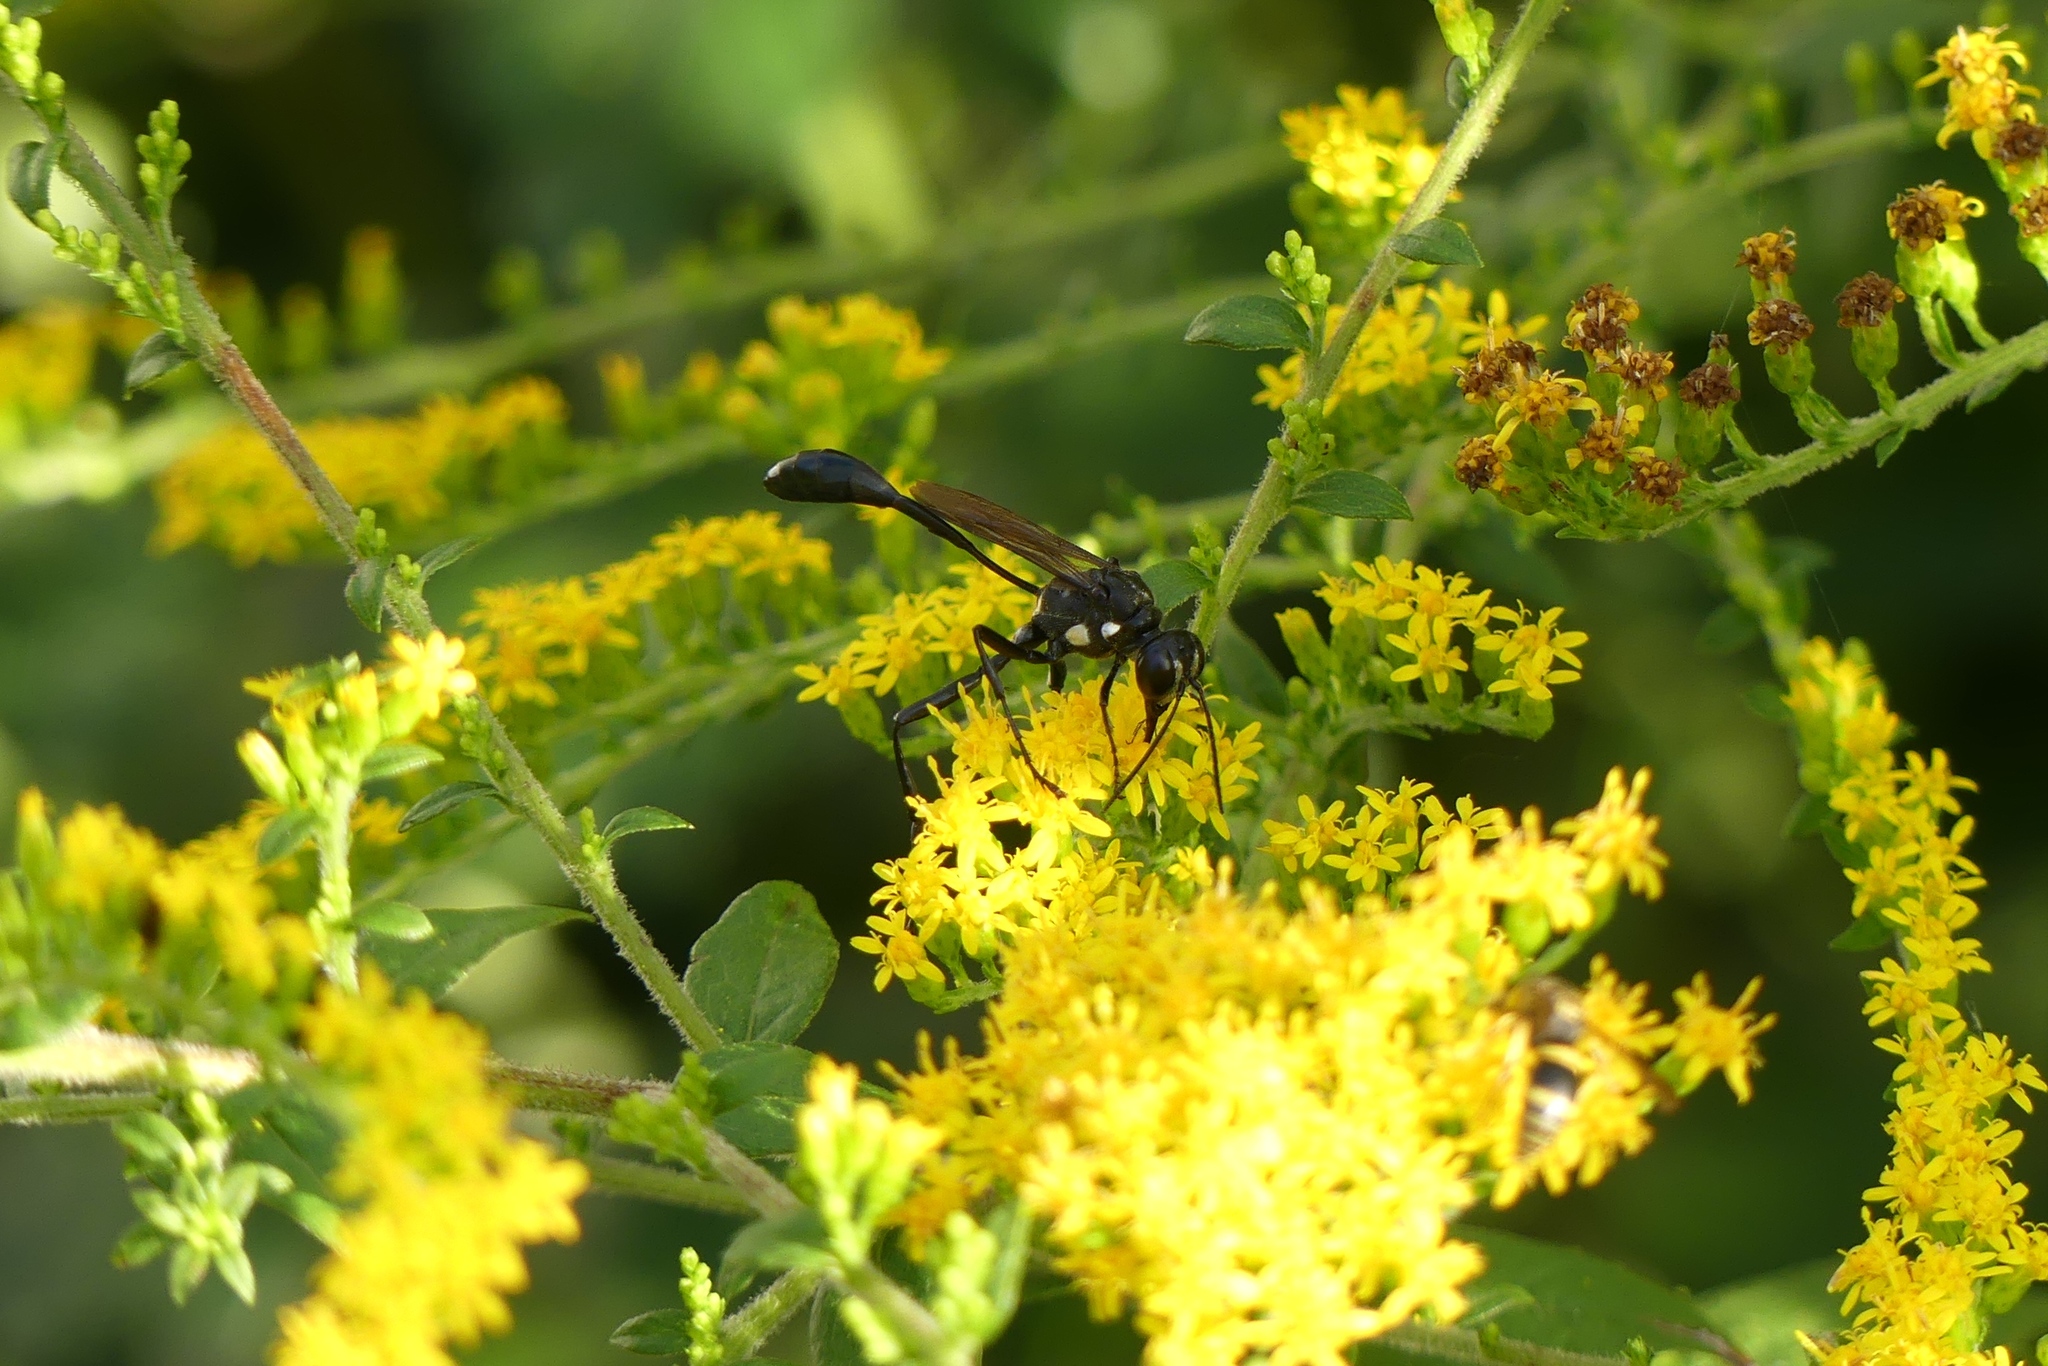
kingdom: Animalia
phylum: Arthropoda
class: Insecta
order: Hymenoptera
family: Sphecidae
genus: Eremnophila
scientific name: Eremnophila aureonotata
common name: Gold-marked thread-waisted wasp
